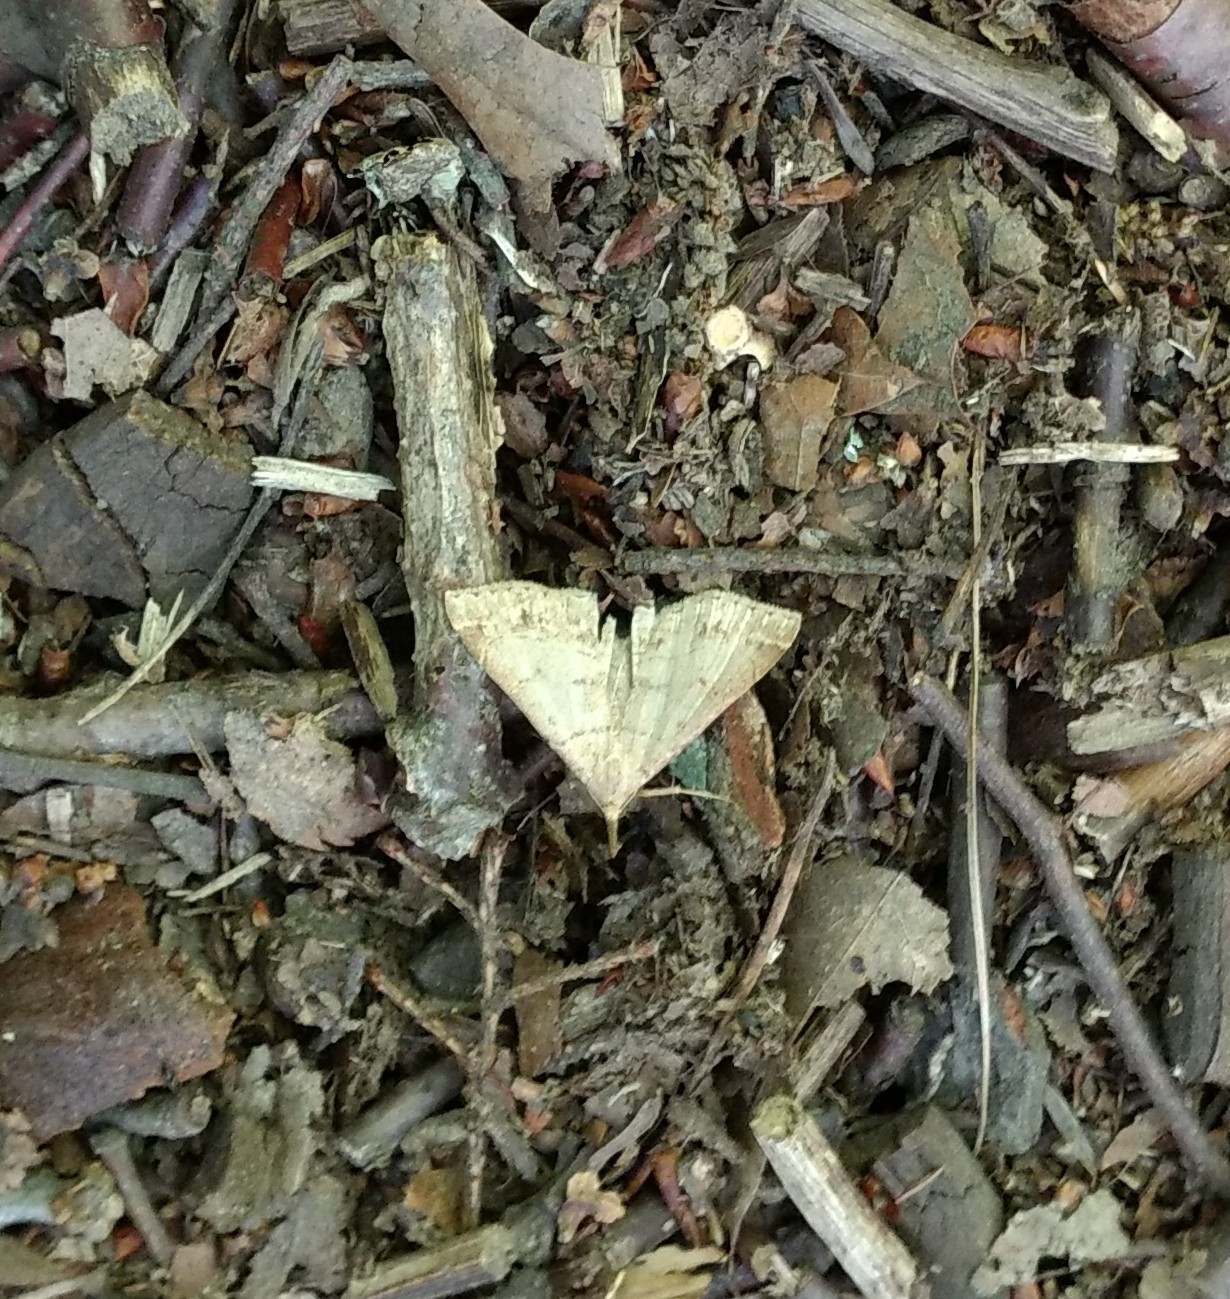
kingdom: Animalia
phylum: Arthropoda
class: Insecta
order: Lepidoptera
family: Erebidae
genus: Renia
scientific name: Renia flavipunctalis
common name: Yellow-spotted renia moth
